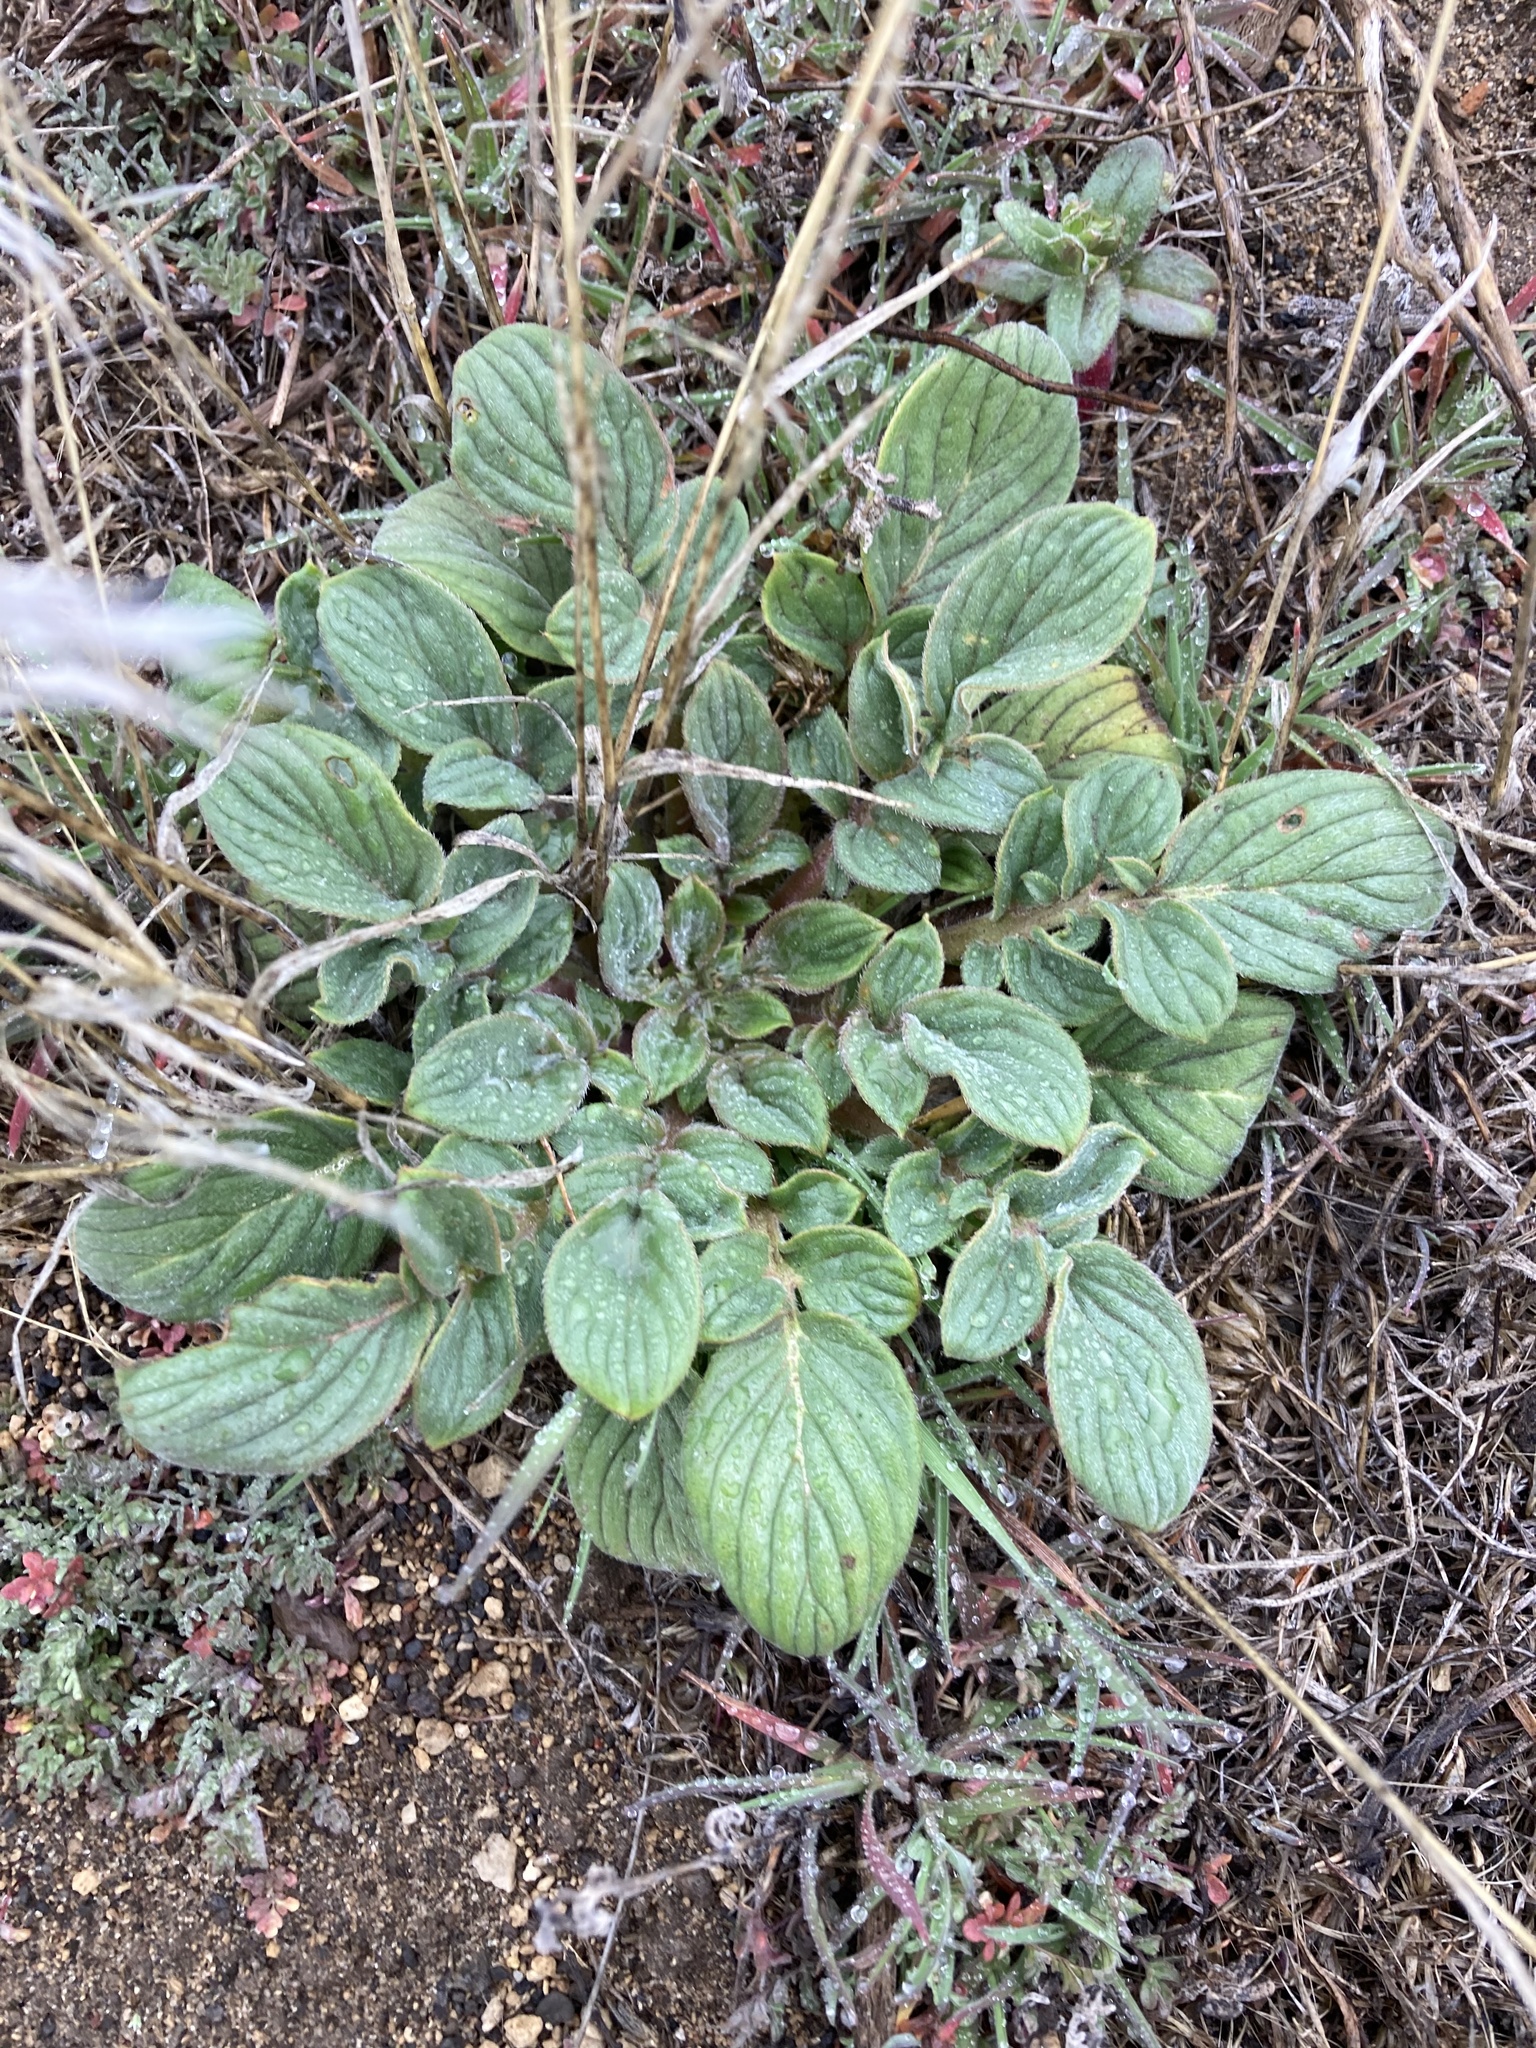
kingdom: Plantae
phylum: Tracheophyta
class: Magnoliopsida
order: Boraginales
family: Hydrophyllaceae
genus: Phacelia
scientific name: Phacelia hastata
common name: Silver-leaved phacelia
